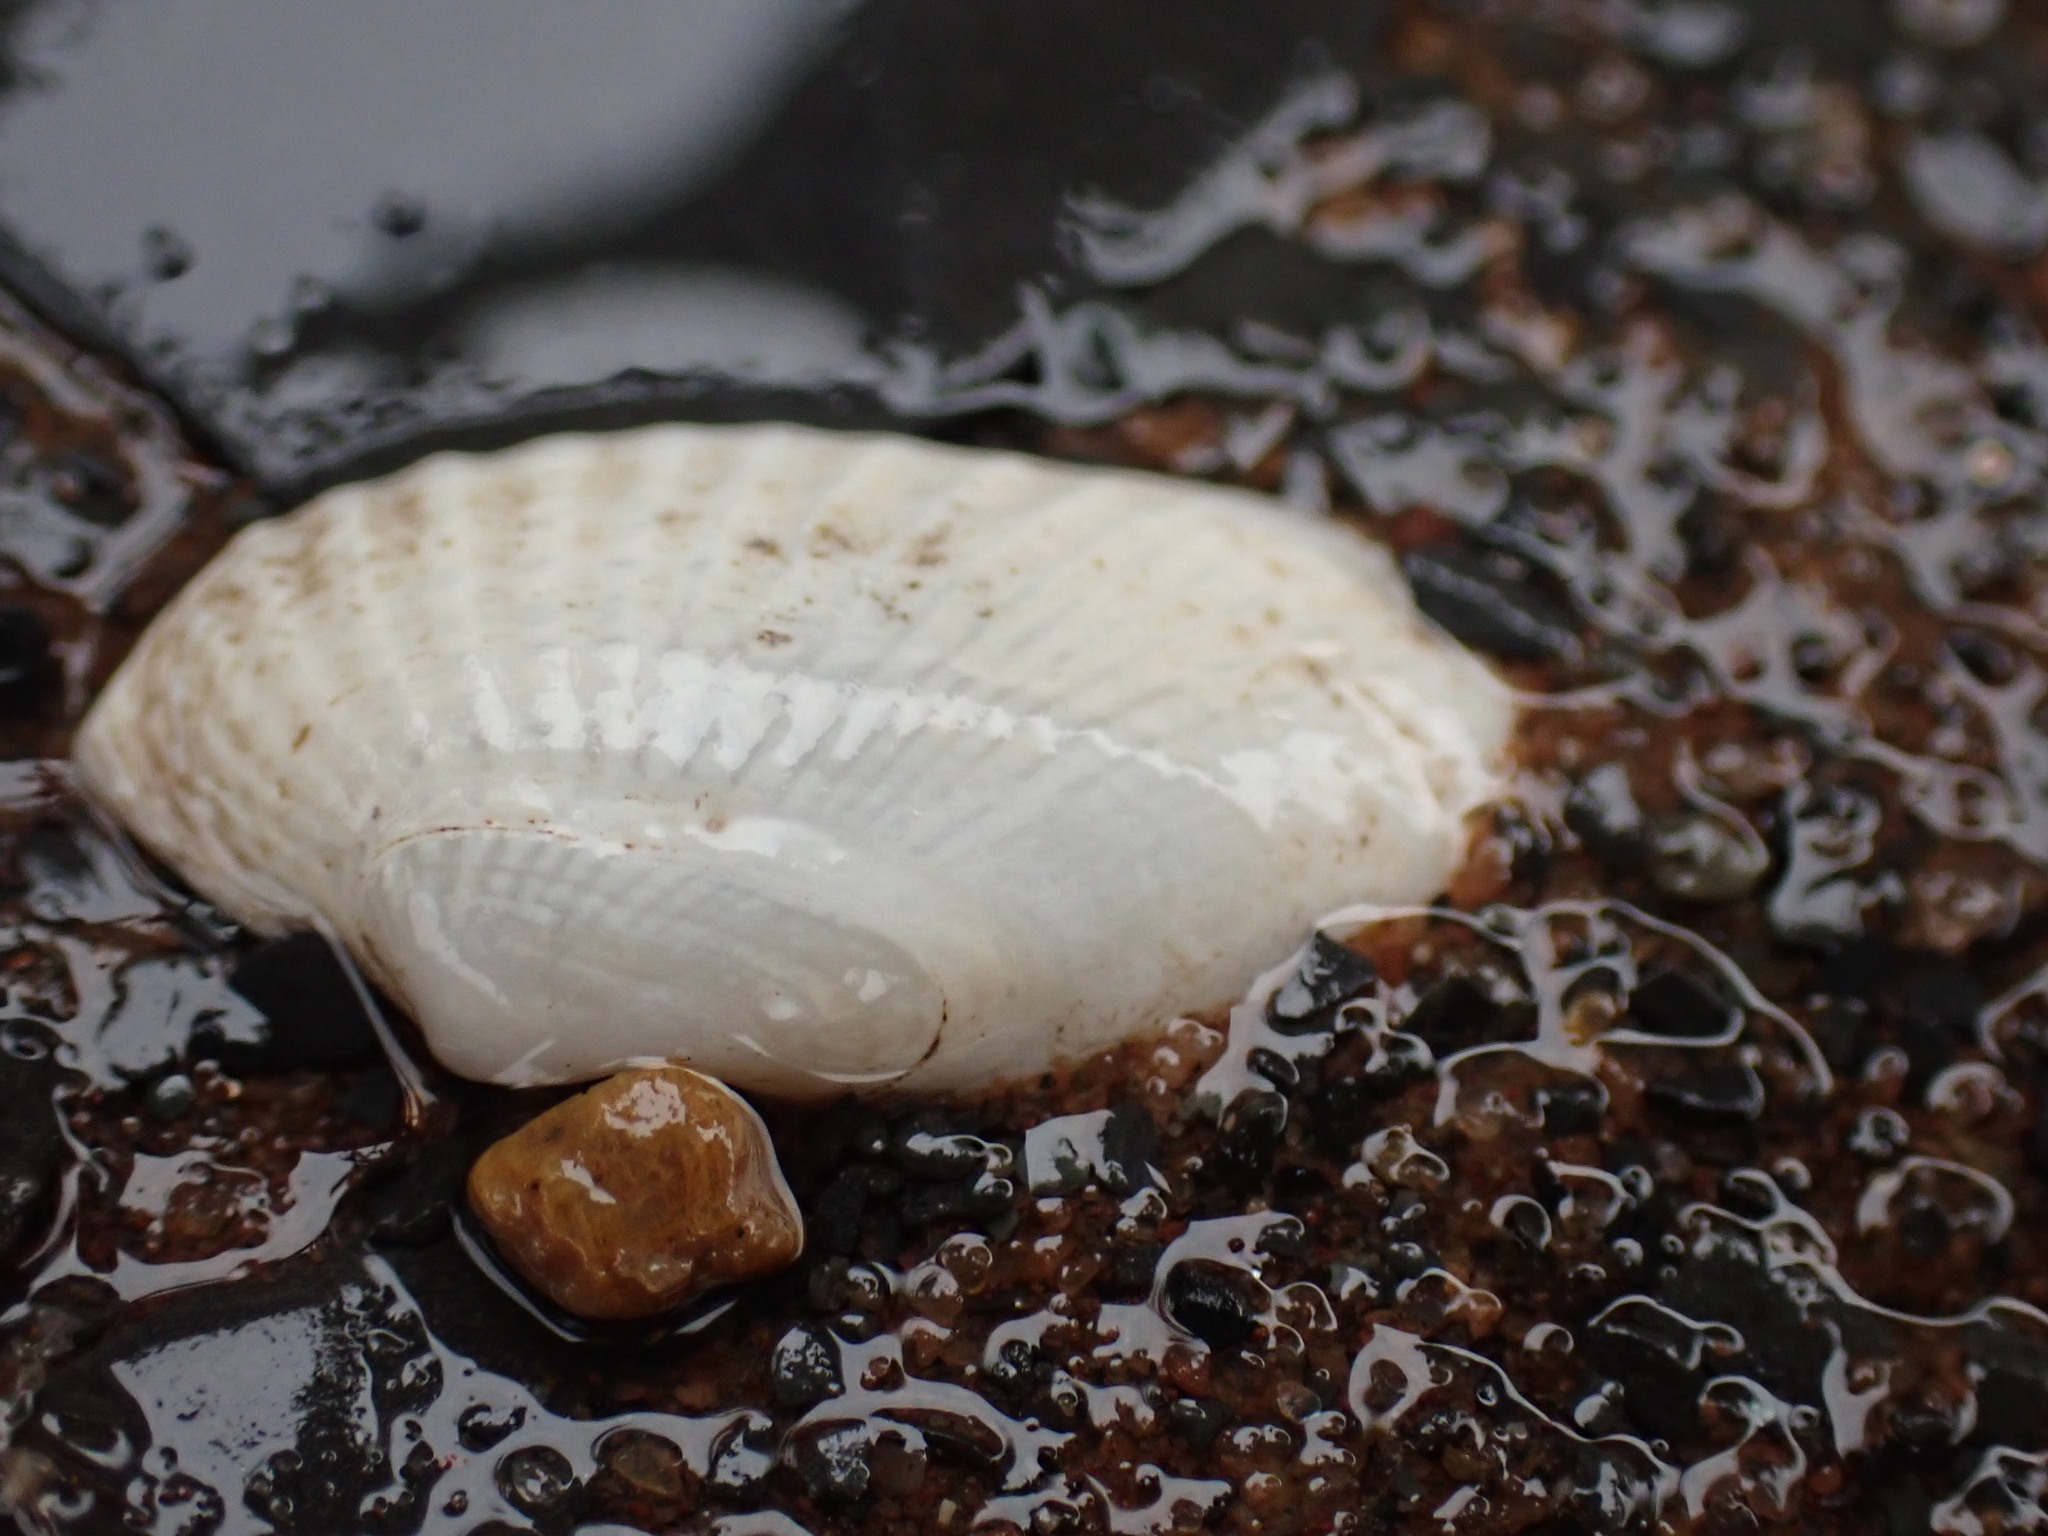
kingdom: Animalia
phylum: Mollusca
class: Bivalvia
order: Venerida
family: Veneridae
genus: Petricolaria
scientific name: Petricolaria pholadiformis
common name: American piddock
